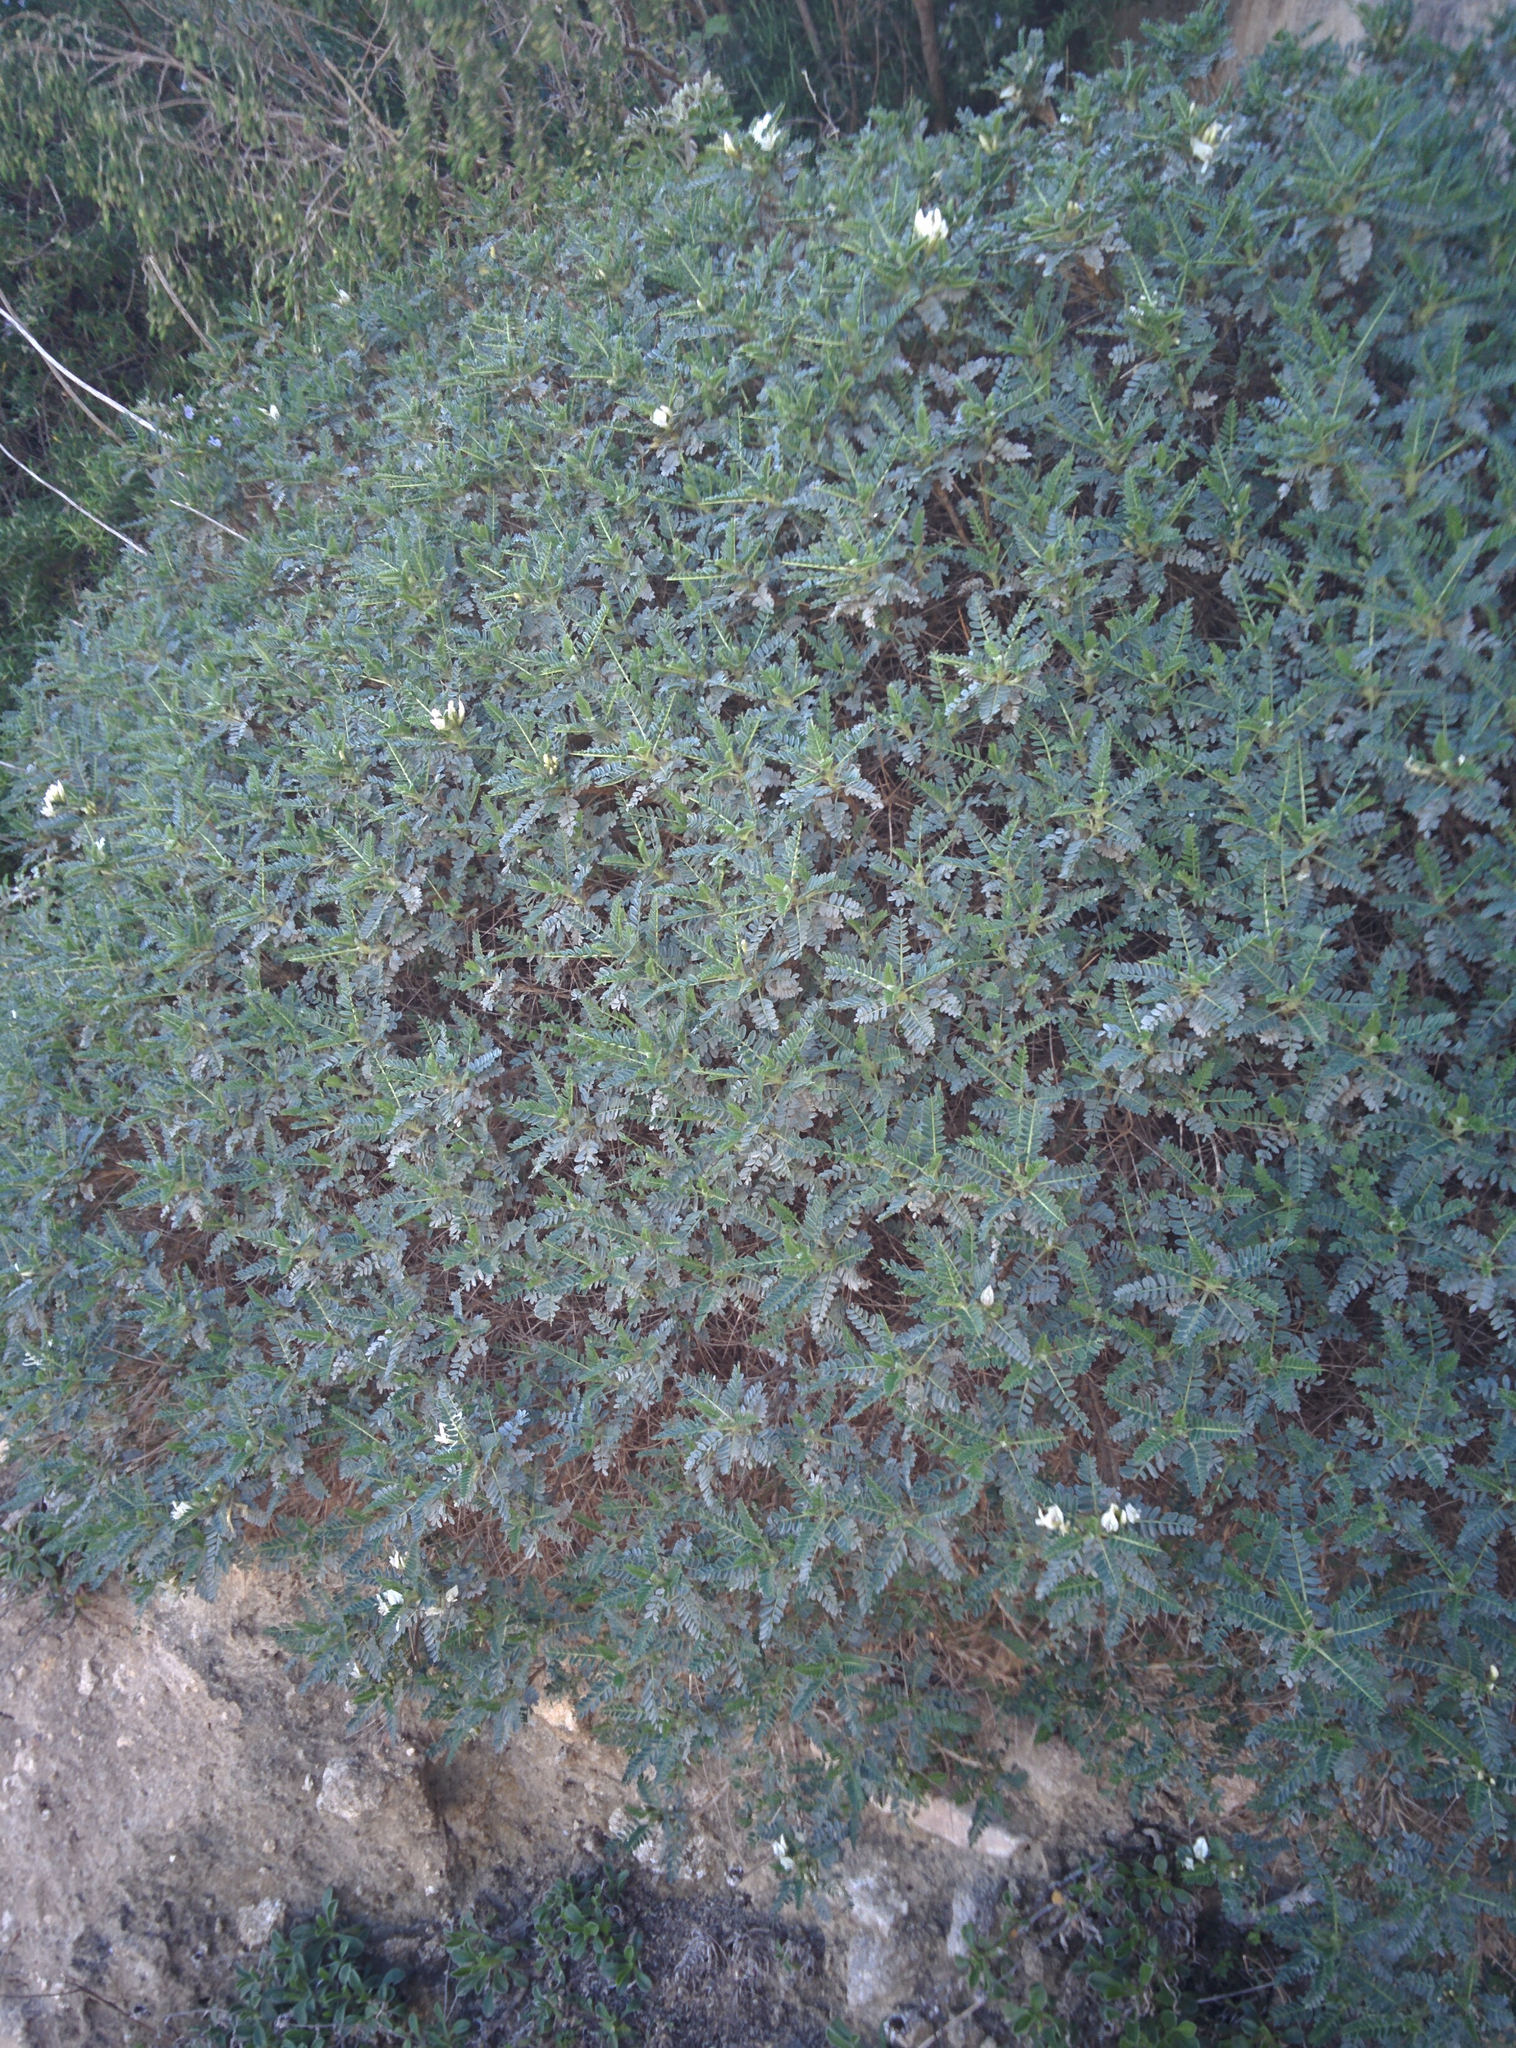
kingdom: Plantae
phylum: Tracheophyta
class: Magnoliopsida
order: Fabales
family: Fabaceae
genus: Astragalus
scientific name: Astragalus terraccianoi
